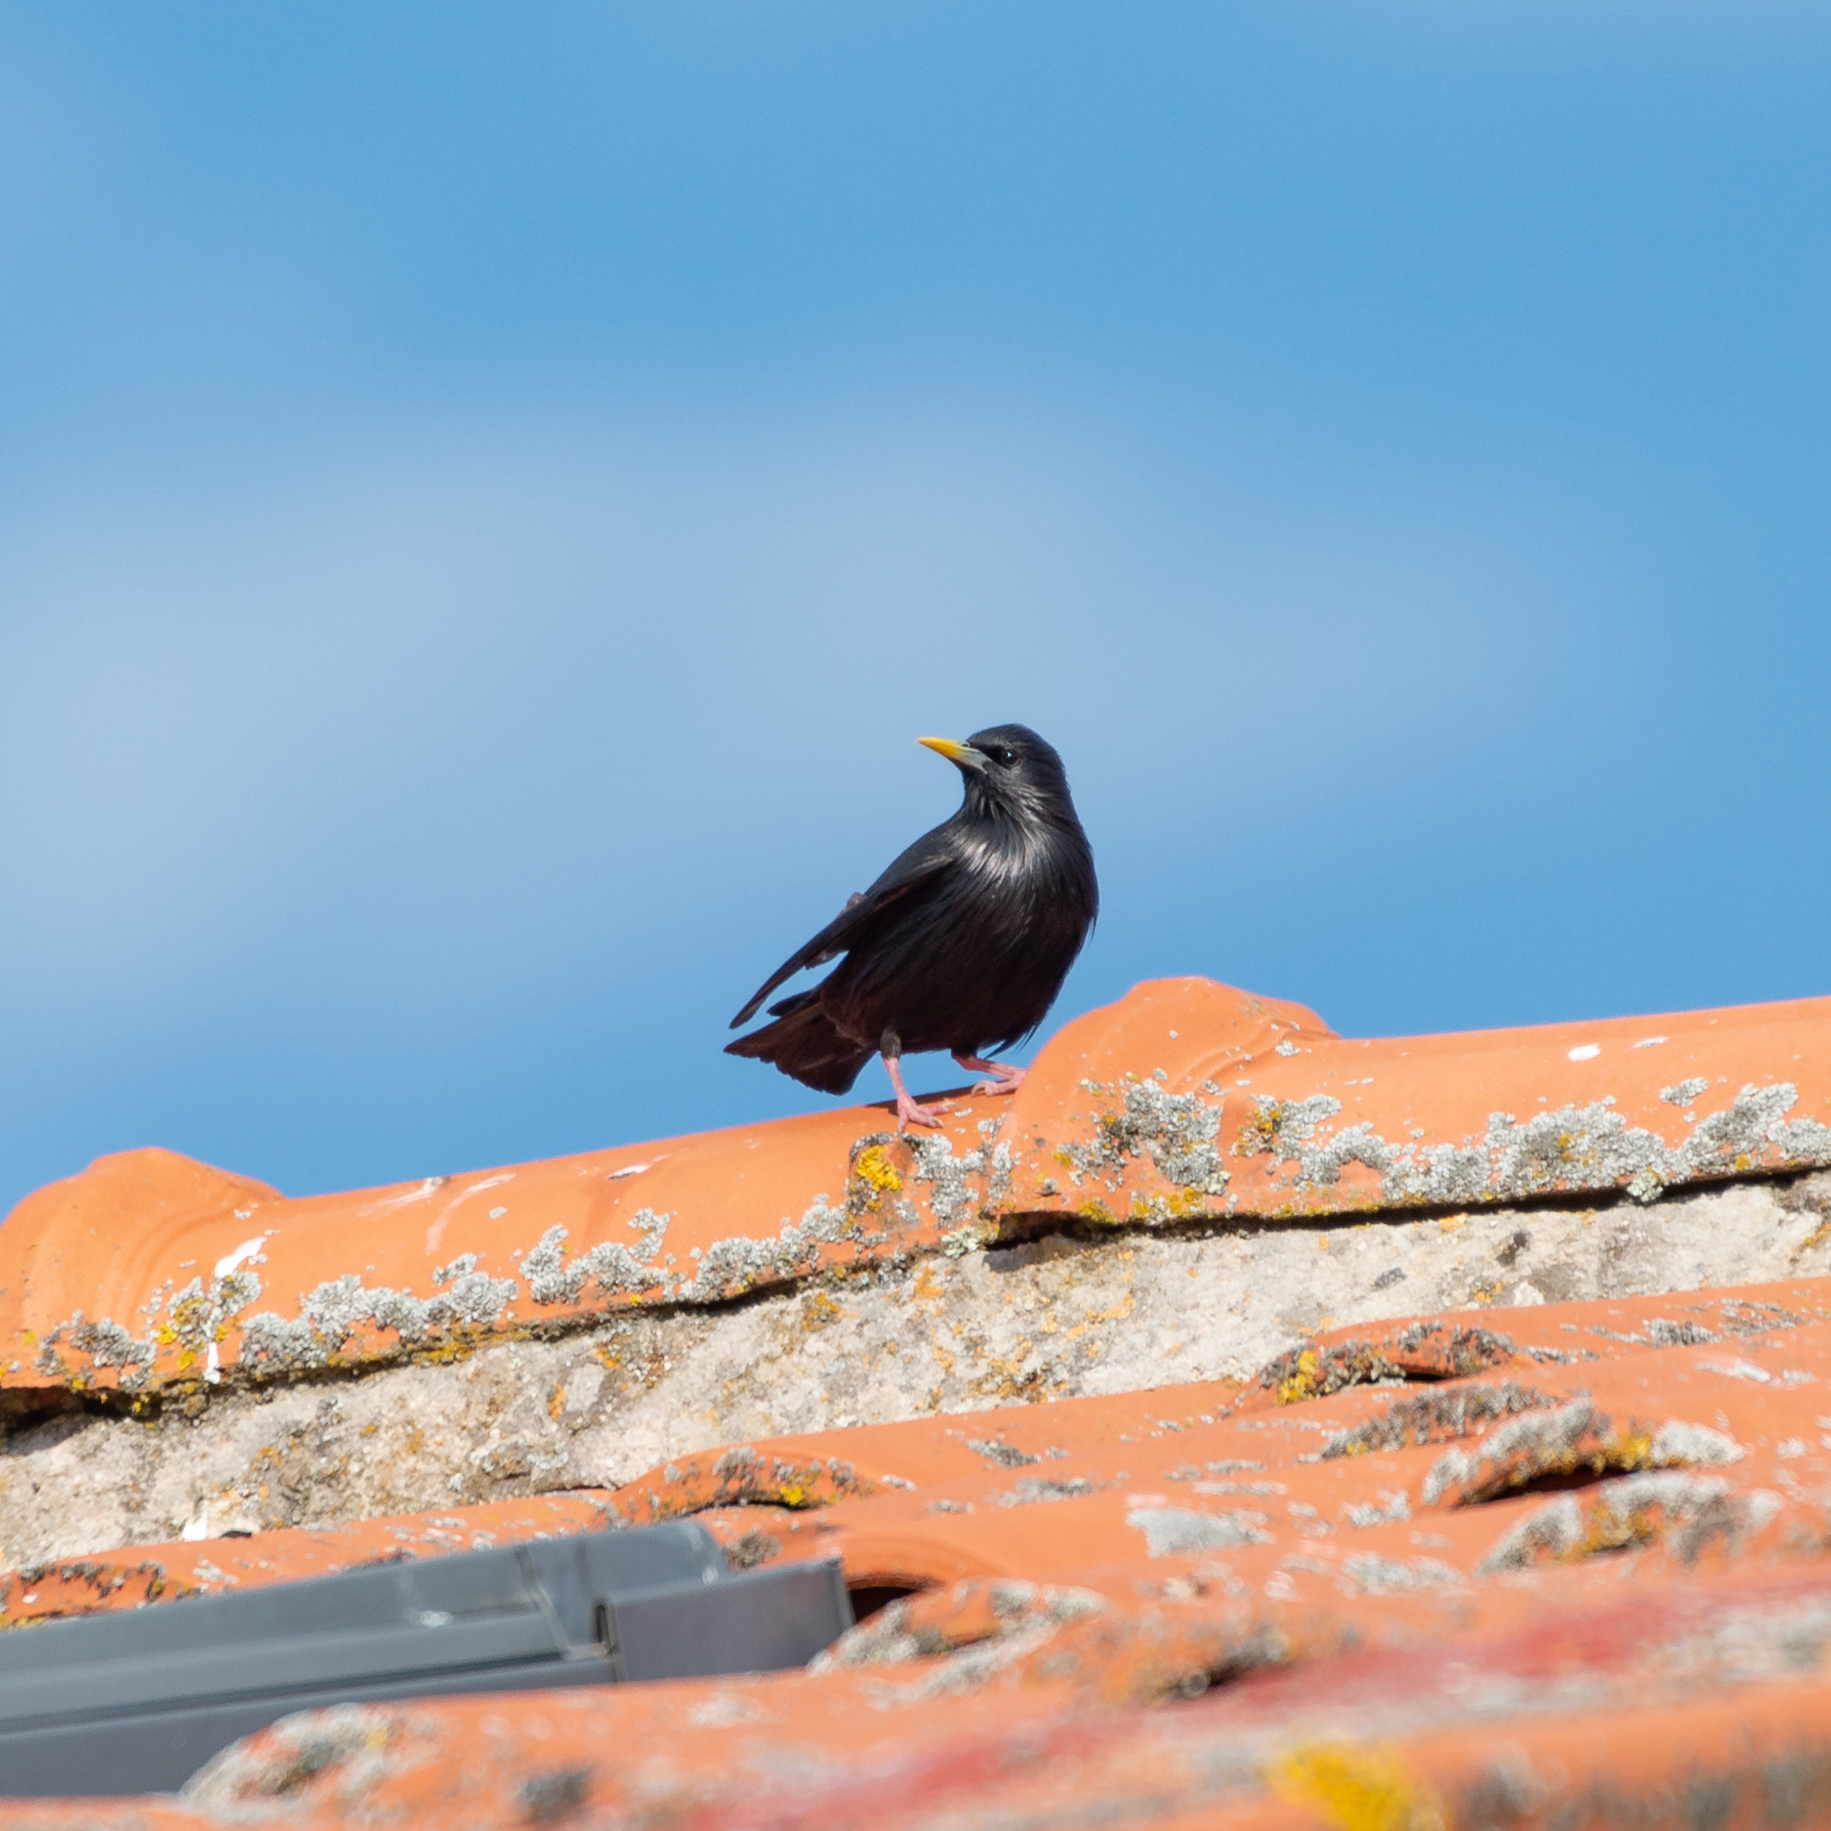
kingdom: Animalia
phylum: Chordata
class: Aves
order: Passeriformes
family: Sturnidae
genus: Sturnus
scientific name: Sturnus unicolor
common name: Spotless starling
